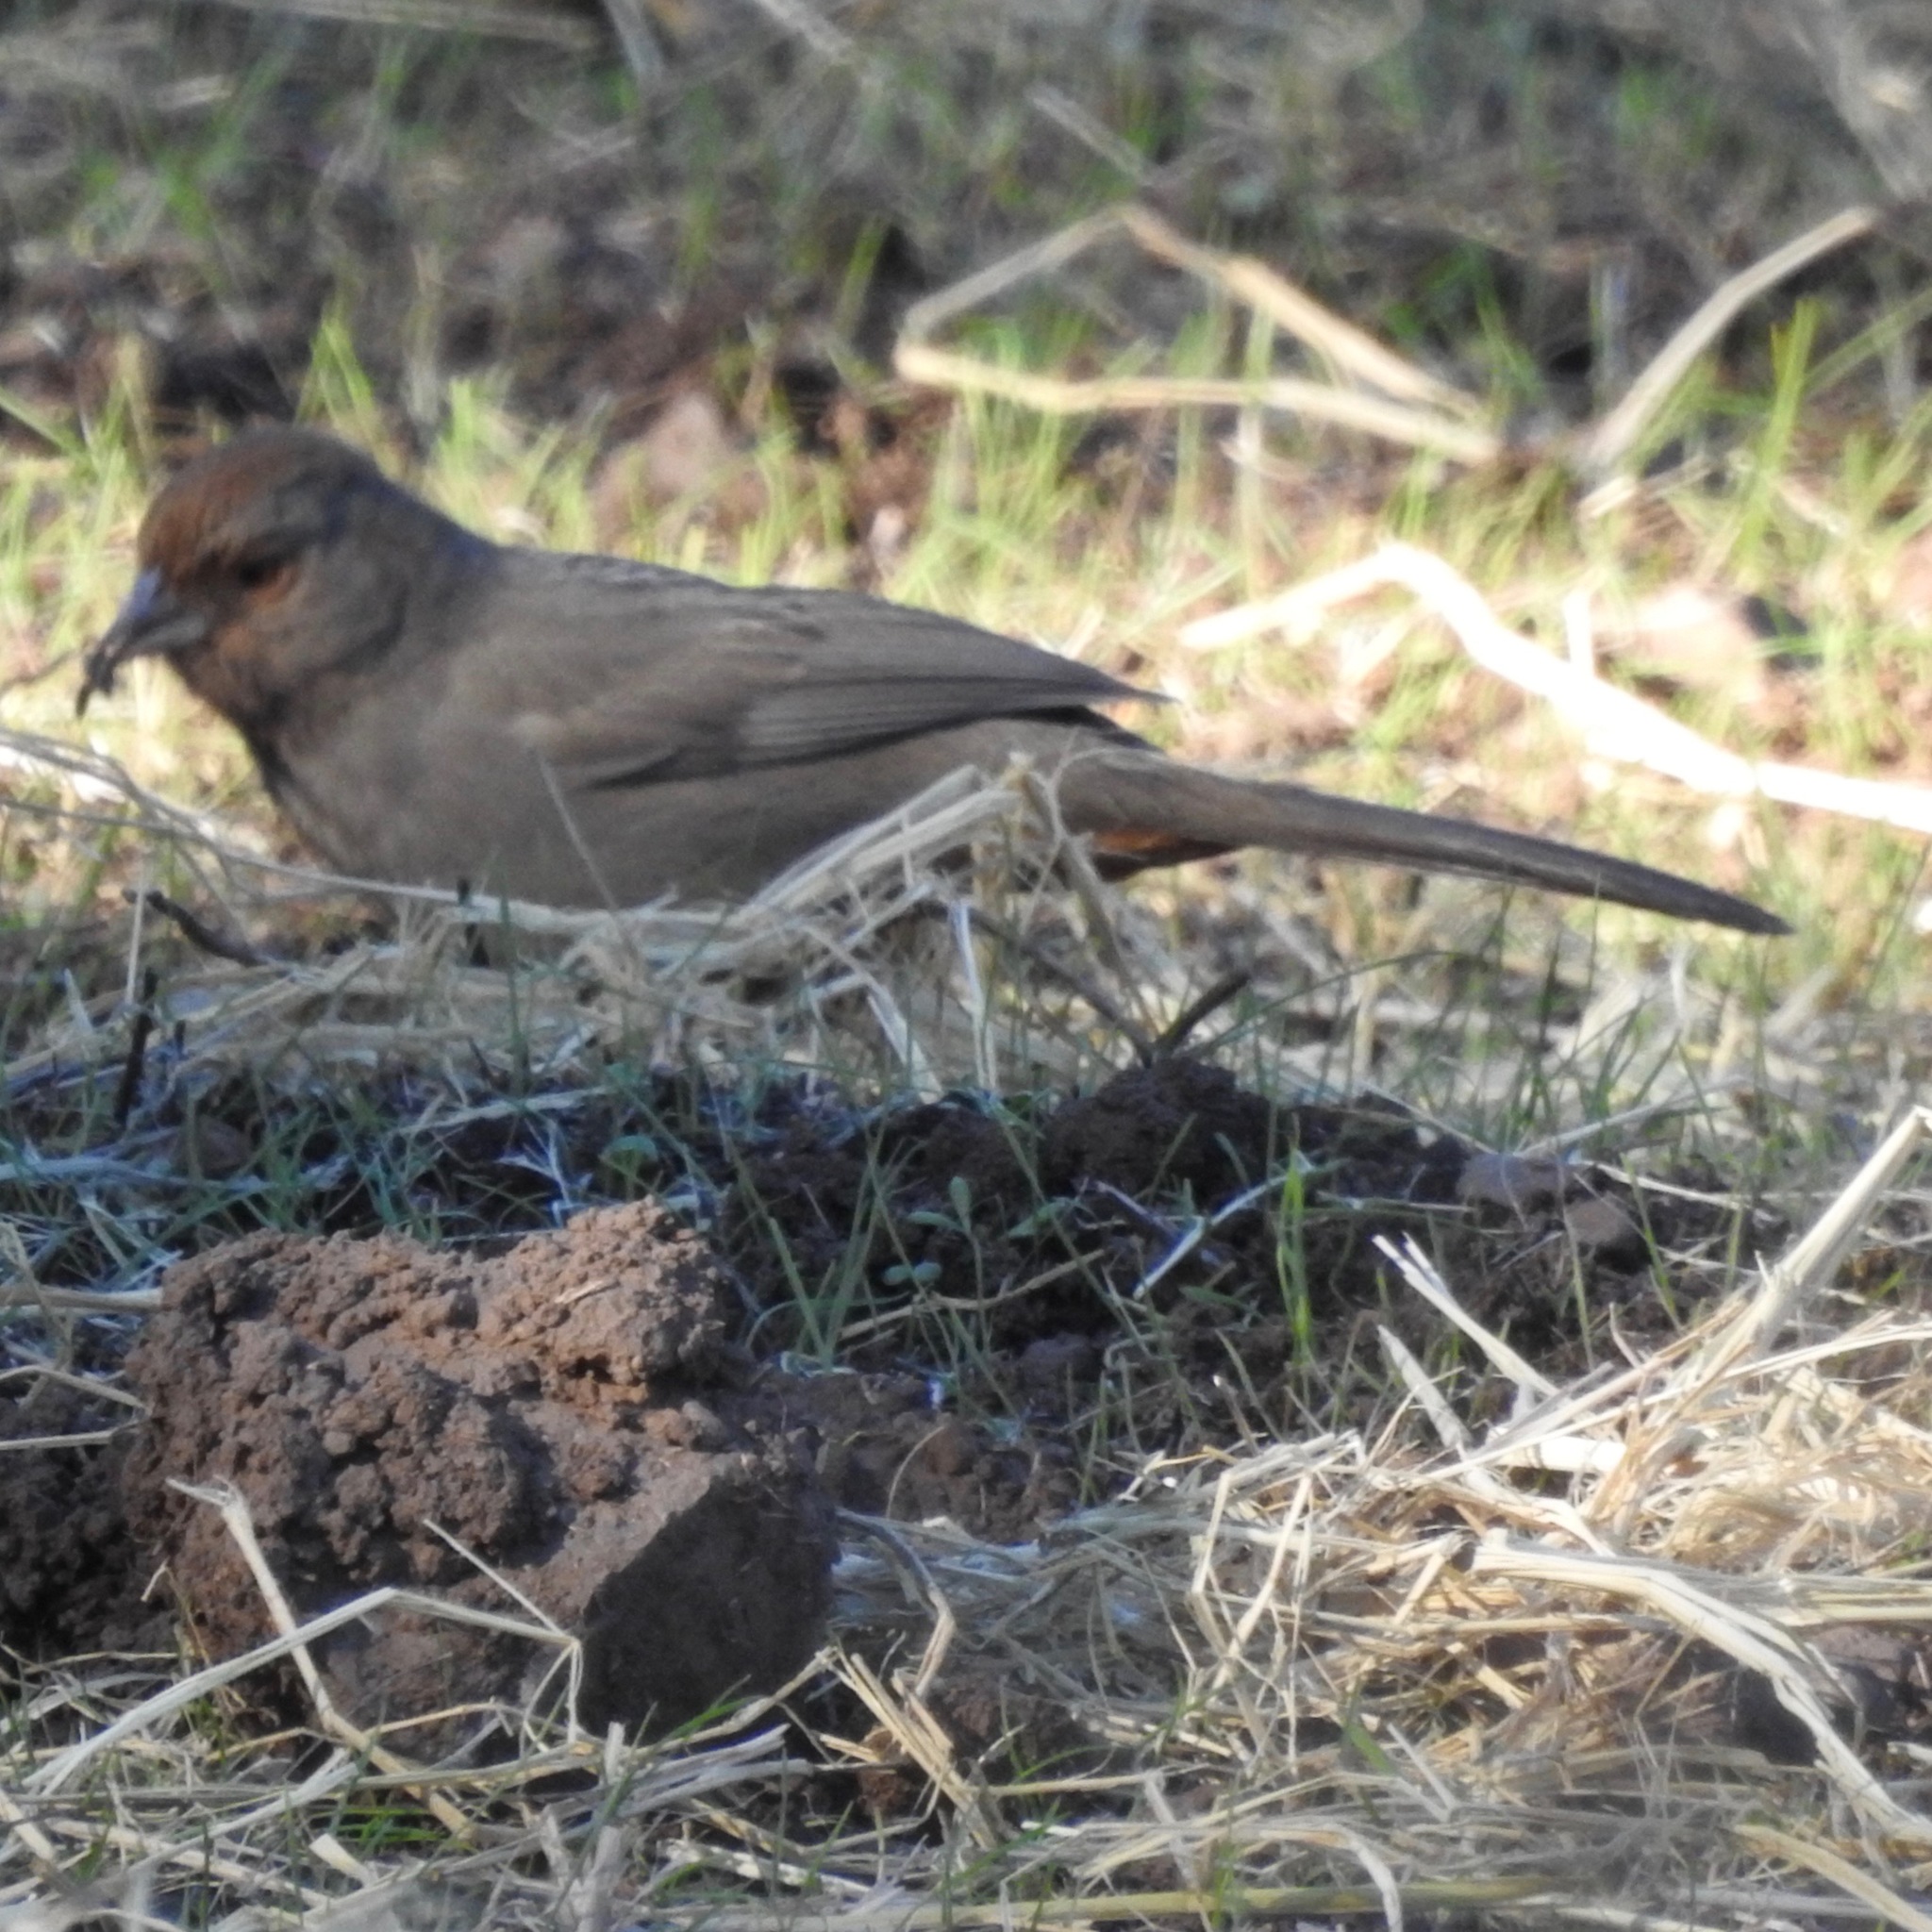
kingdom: Animalia
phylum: Chordata
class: Aves
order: Passeriformes
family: Passerellidae
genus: Melozone
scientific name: Melozone crissalis
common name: California towhee
